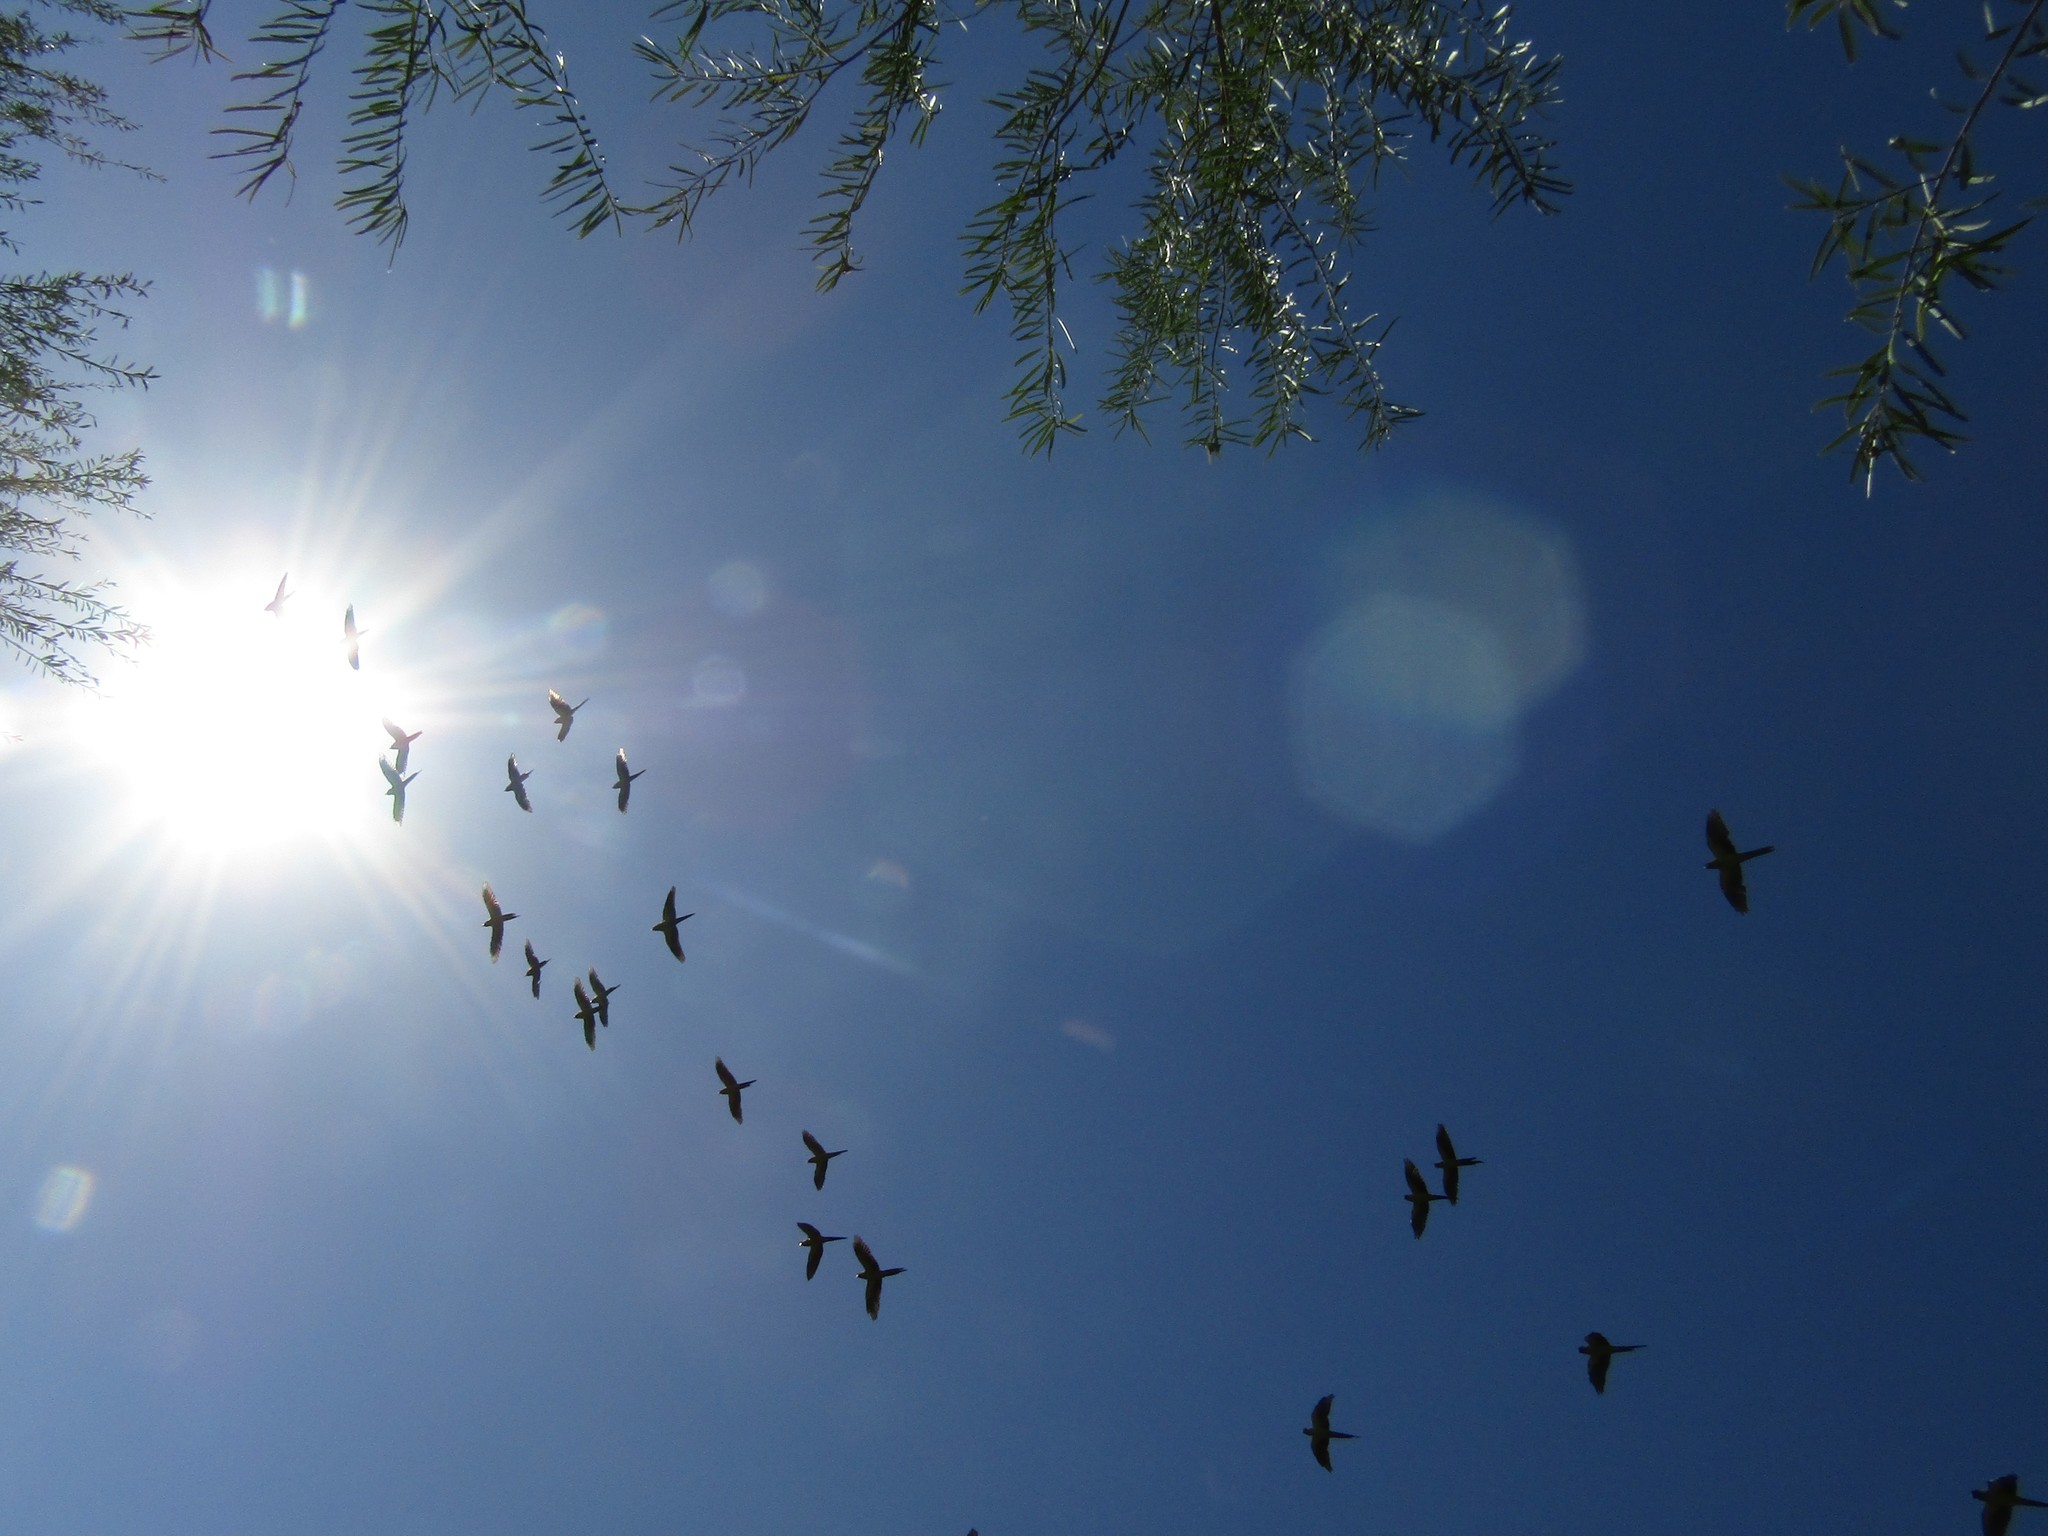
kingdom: Animalia
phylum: Chordata
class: Aves
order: Psittaciformes
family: Psittacidae
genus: Nandayus
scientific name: Nandayus nenday
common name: Nanday parakeet
